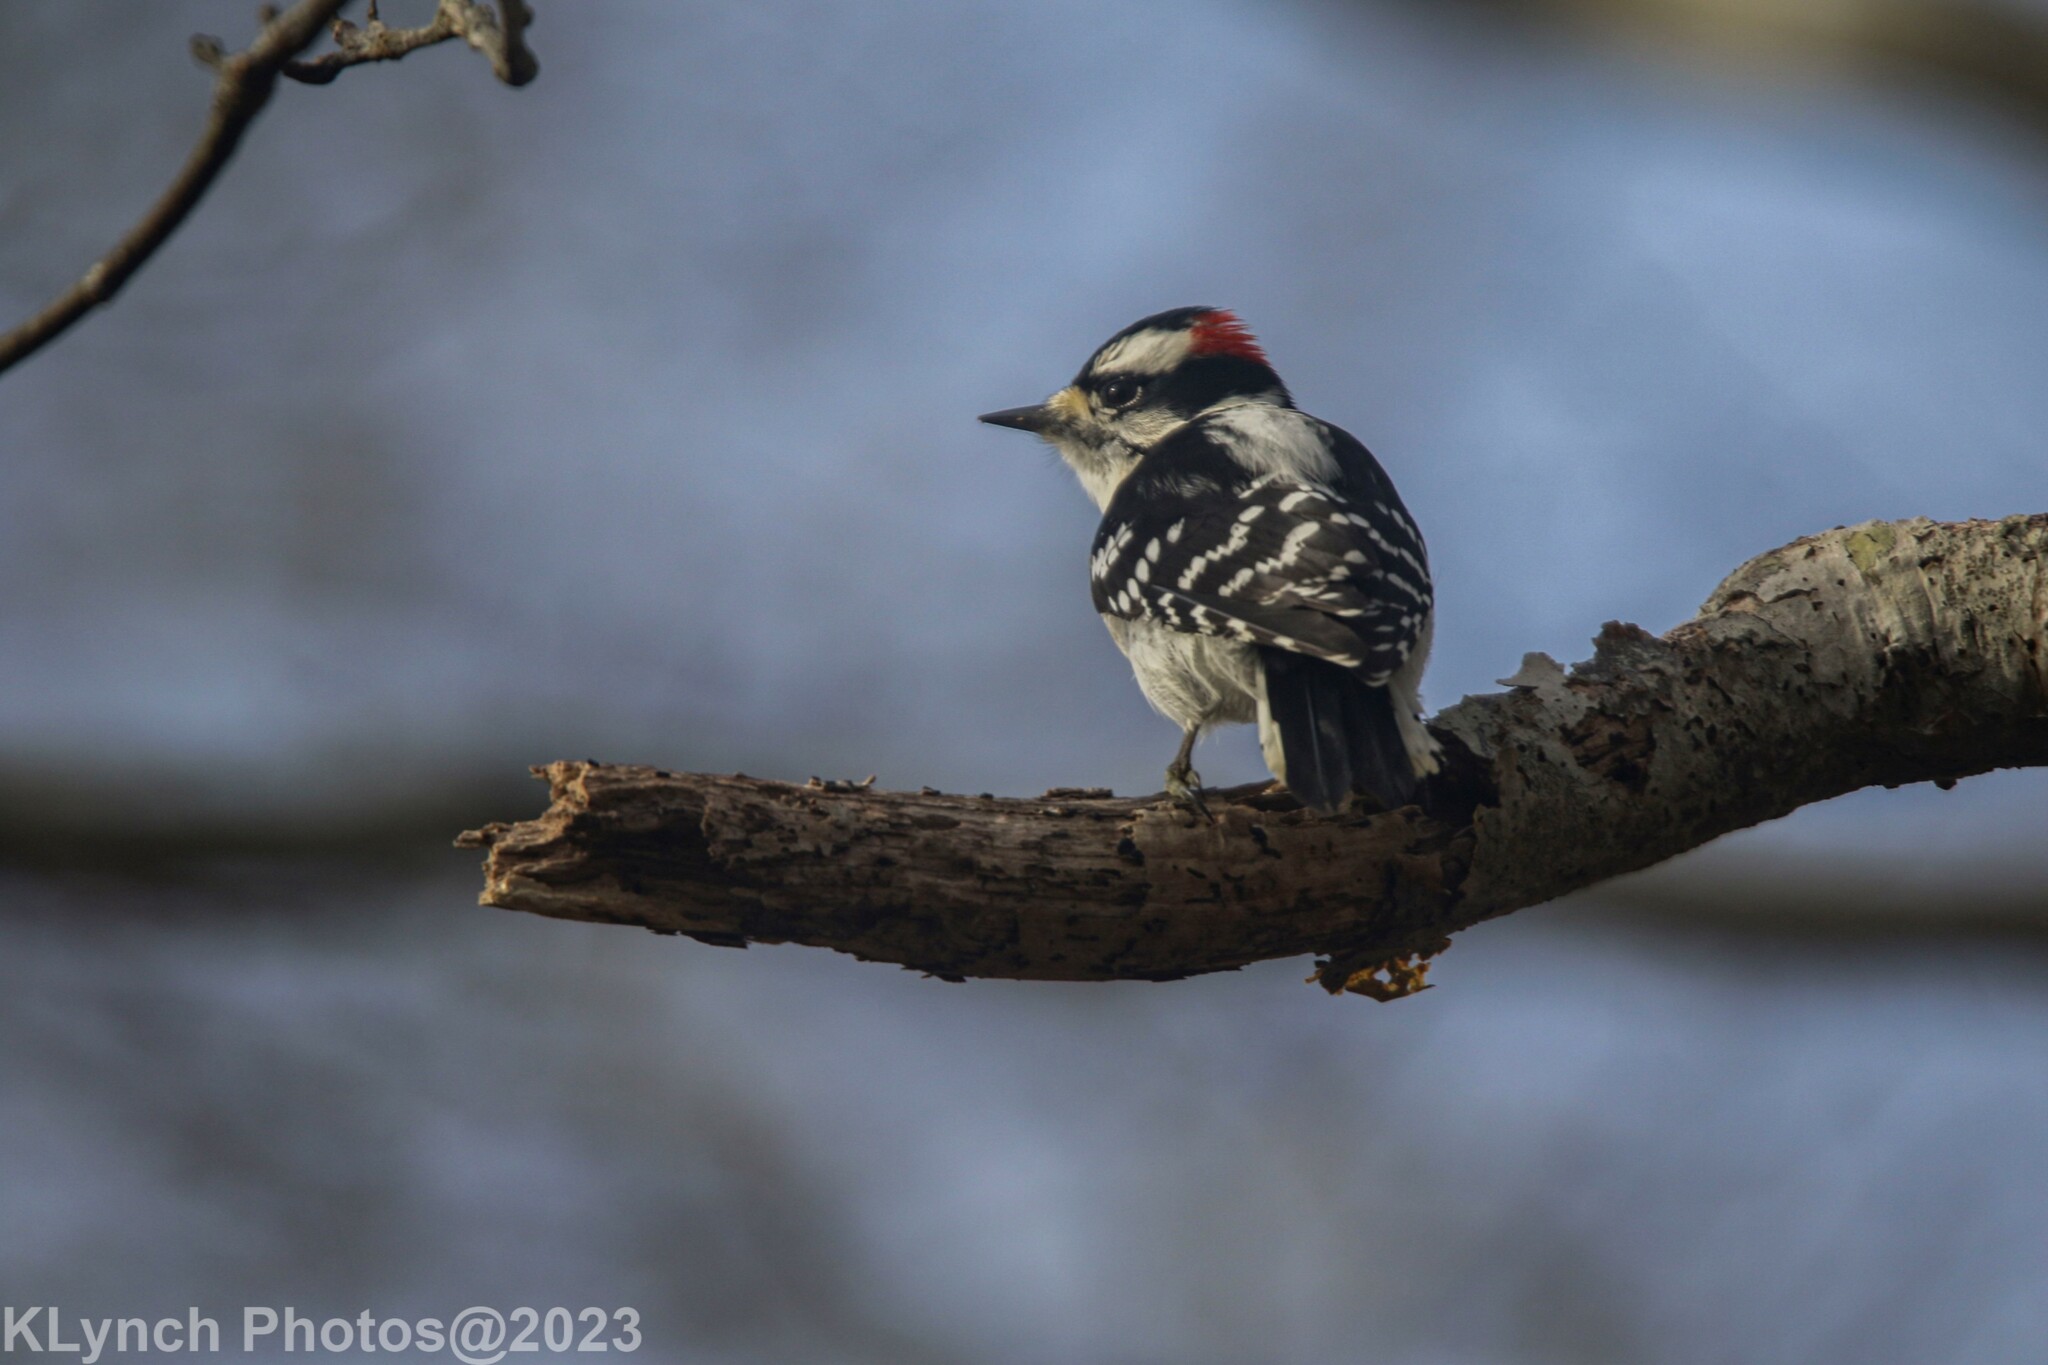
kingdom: Animalia
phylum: Chordata
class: Aves
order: Piciformes
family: Picidae
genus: Dryobates
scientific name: Dryobates pubescens
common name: Downy woodpecker
